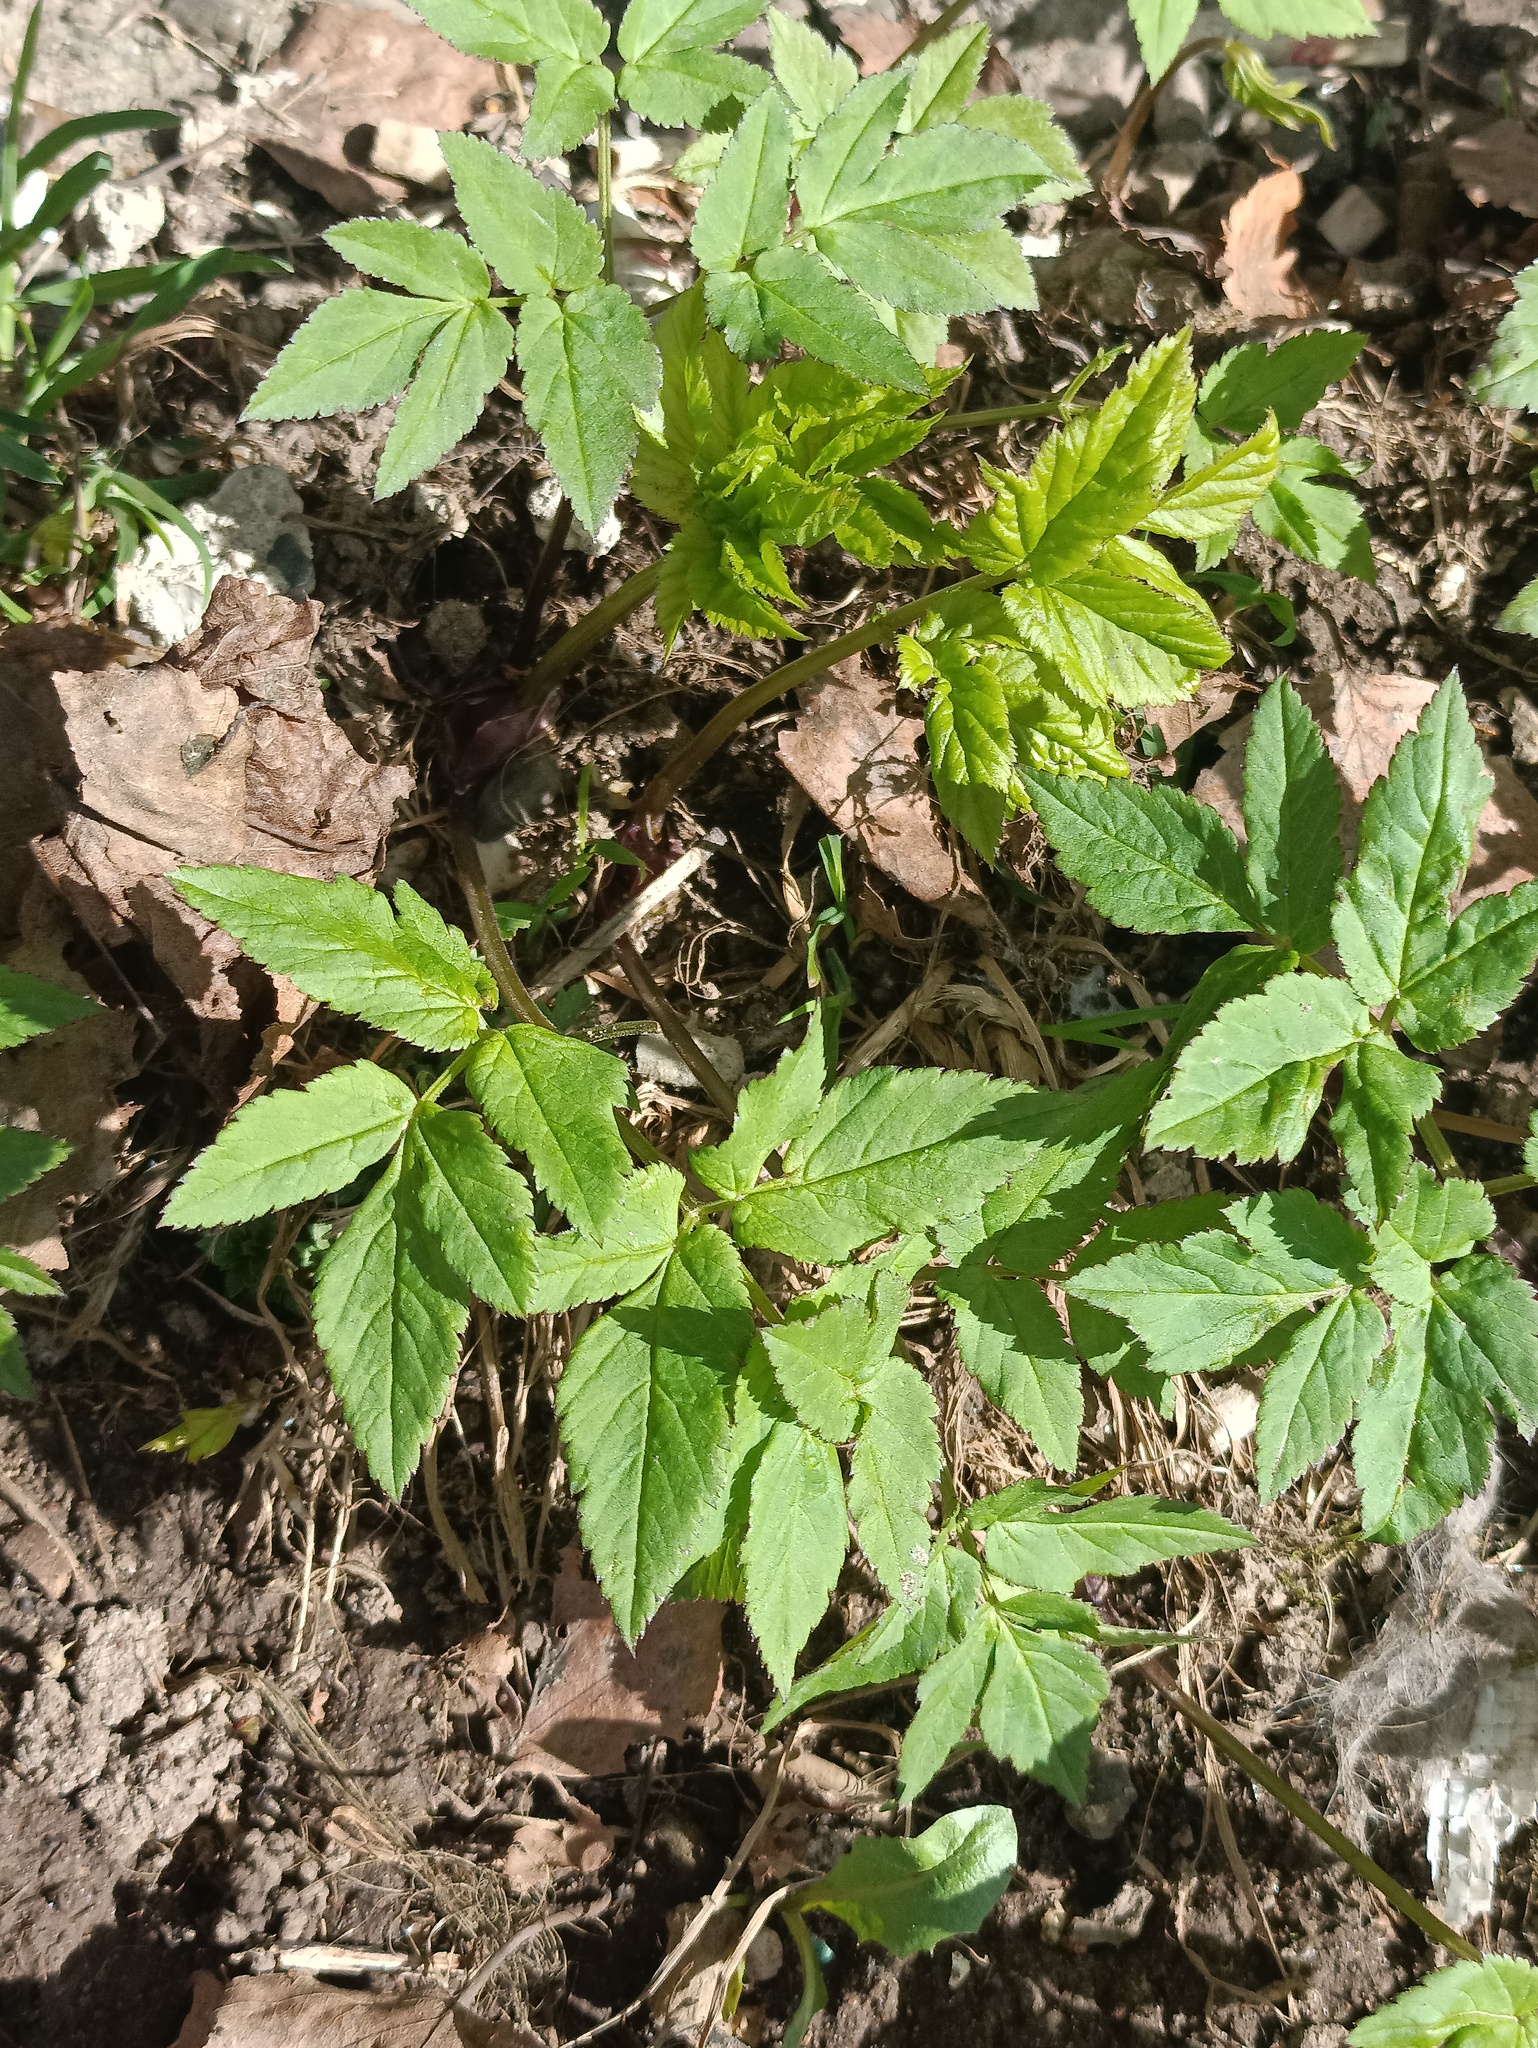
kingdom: Plantae
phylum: Tracheophyta
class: Magnoliopsida
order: Apiales
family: Apiaceae
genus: Aegopodium
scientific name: Aegopodium podagraria
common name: Ground-elder
